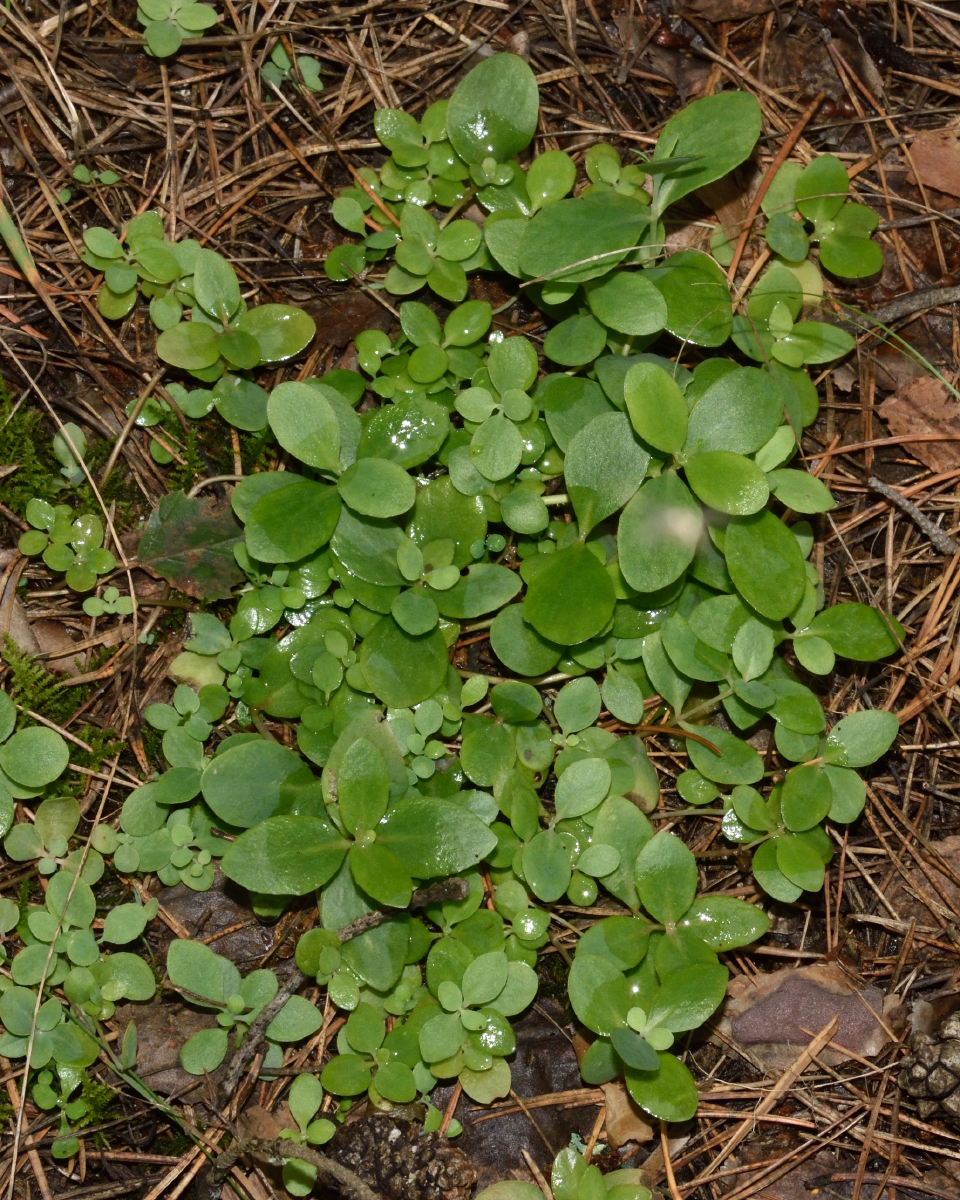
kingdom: Plantae
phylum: Tracheophyta
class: Magnoliopsida
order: Saxifragales
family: Crassulaceae
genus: Hylotelephium
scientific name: Hylotelephium maximum
